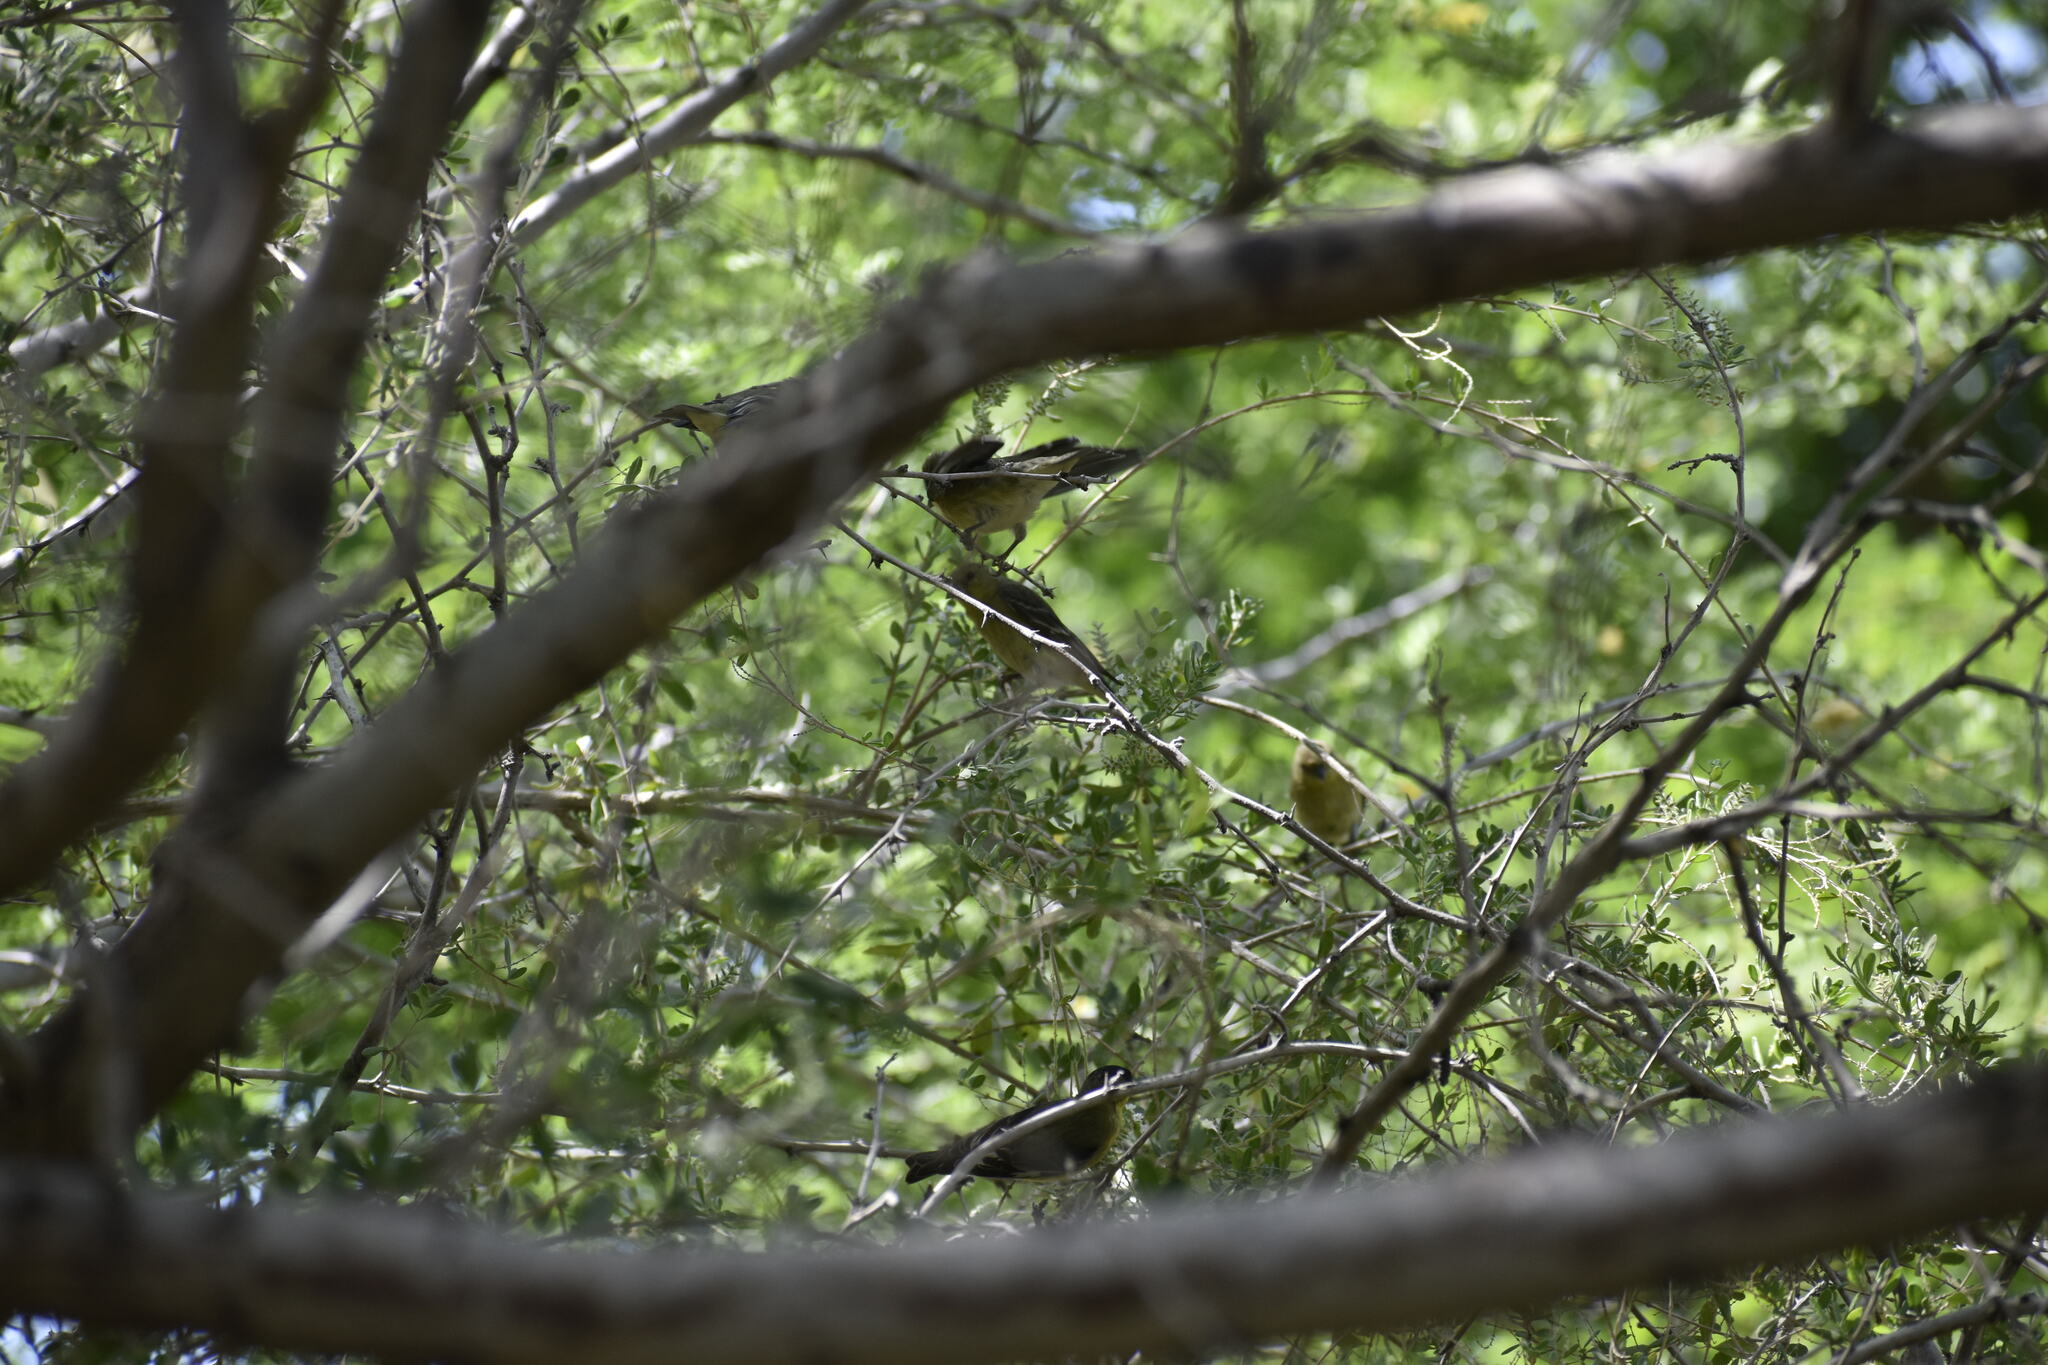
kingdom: Animalia
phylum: Chordata
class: Aves
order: Passeriformes
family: Fringillidae
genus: Spinus
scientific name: Spinus psaltria
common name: Lesser goldfinch
